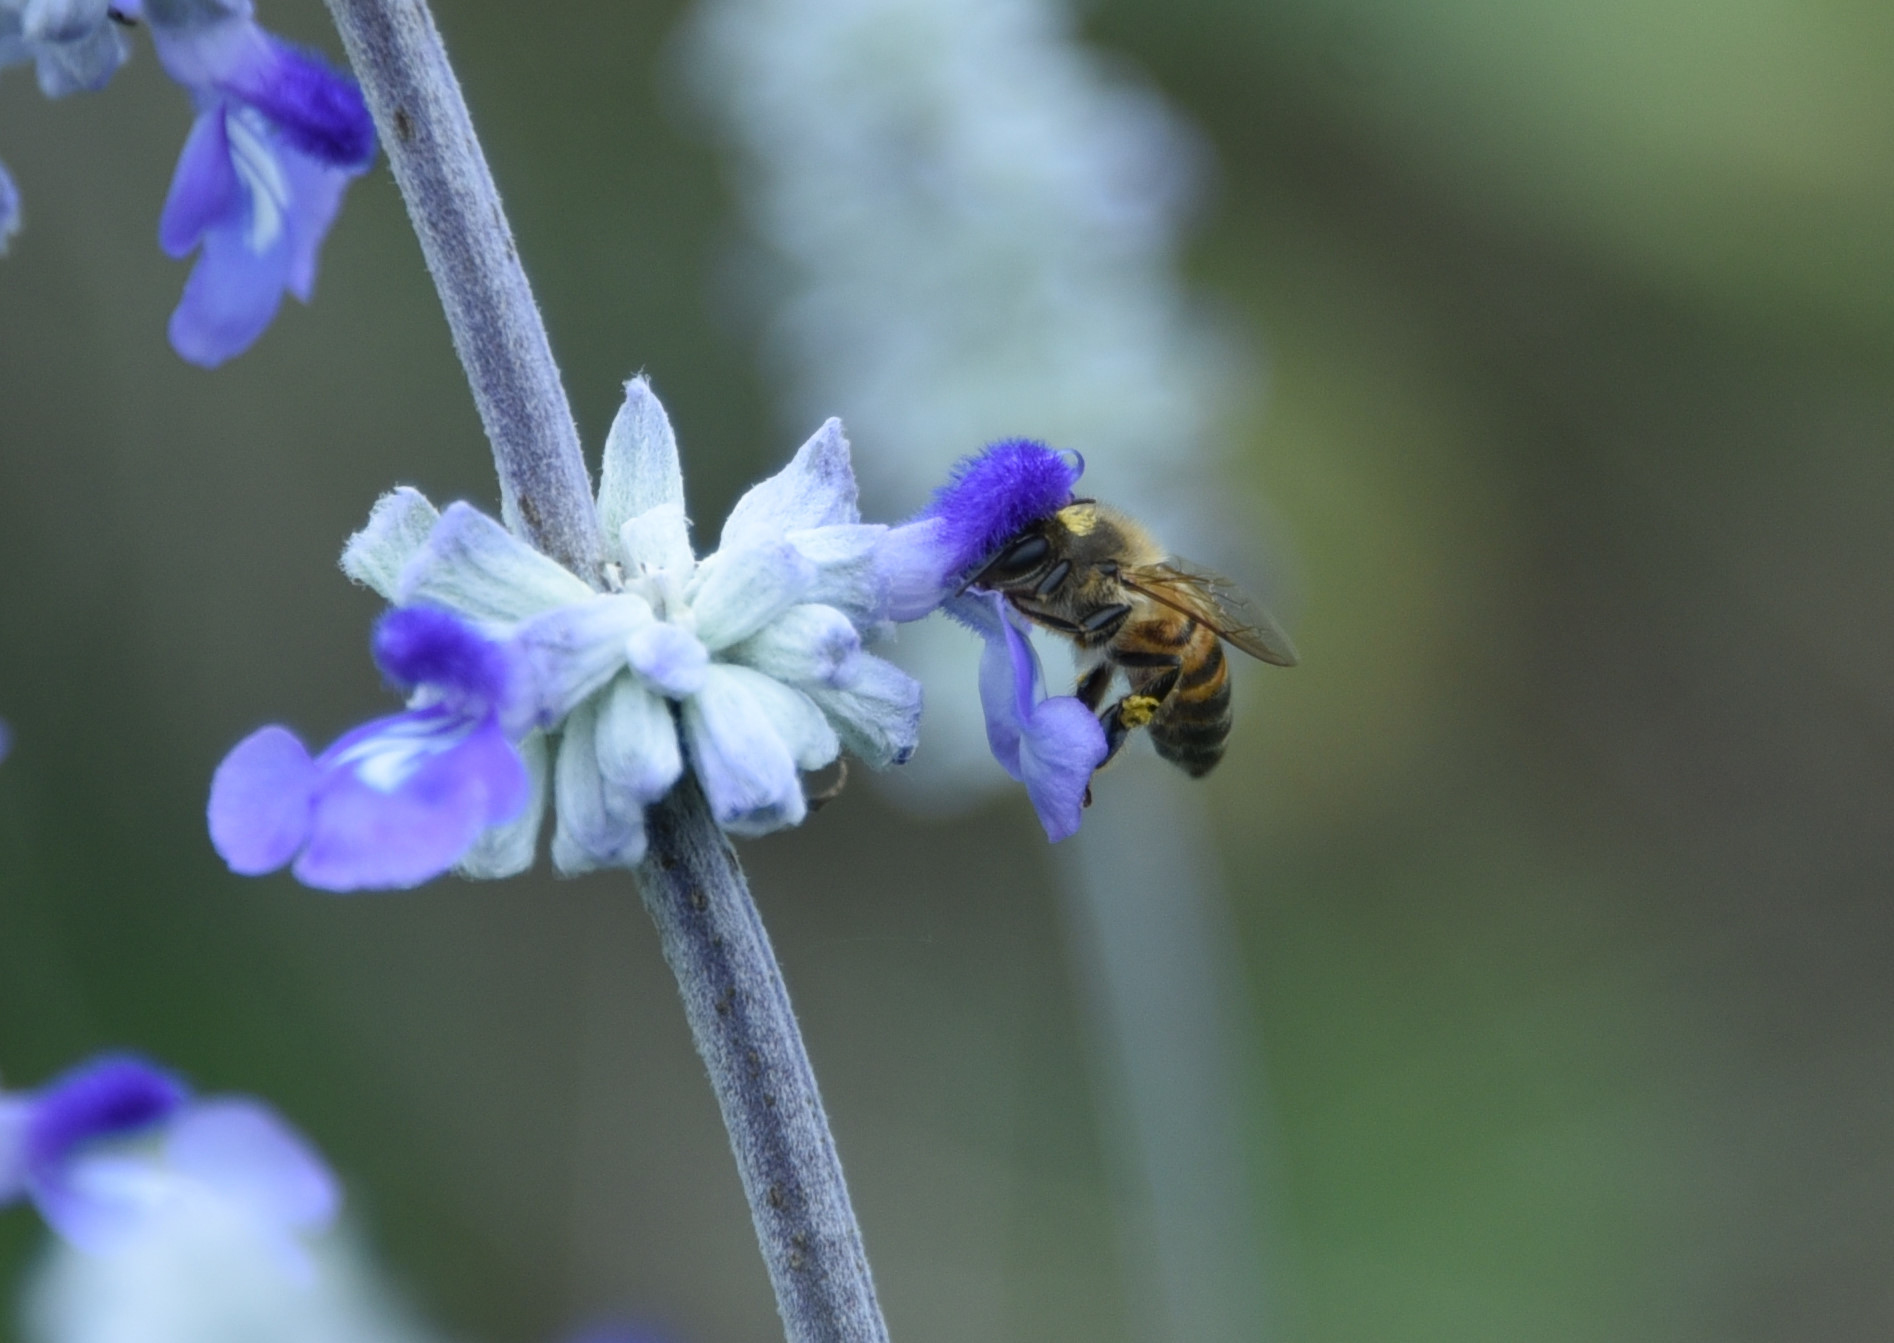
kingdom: Animalia
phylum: Arthropoda
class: Insecta
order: Hymenoptera
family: Apidae
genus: Apis
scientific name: Apis mellifera
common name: Honey bee
